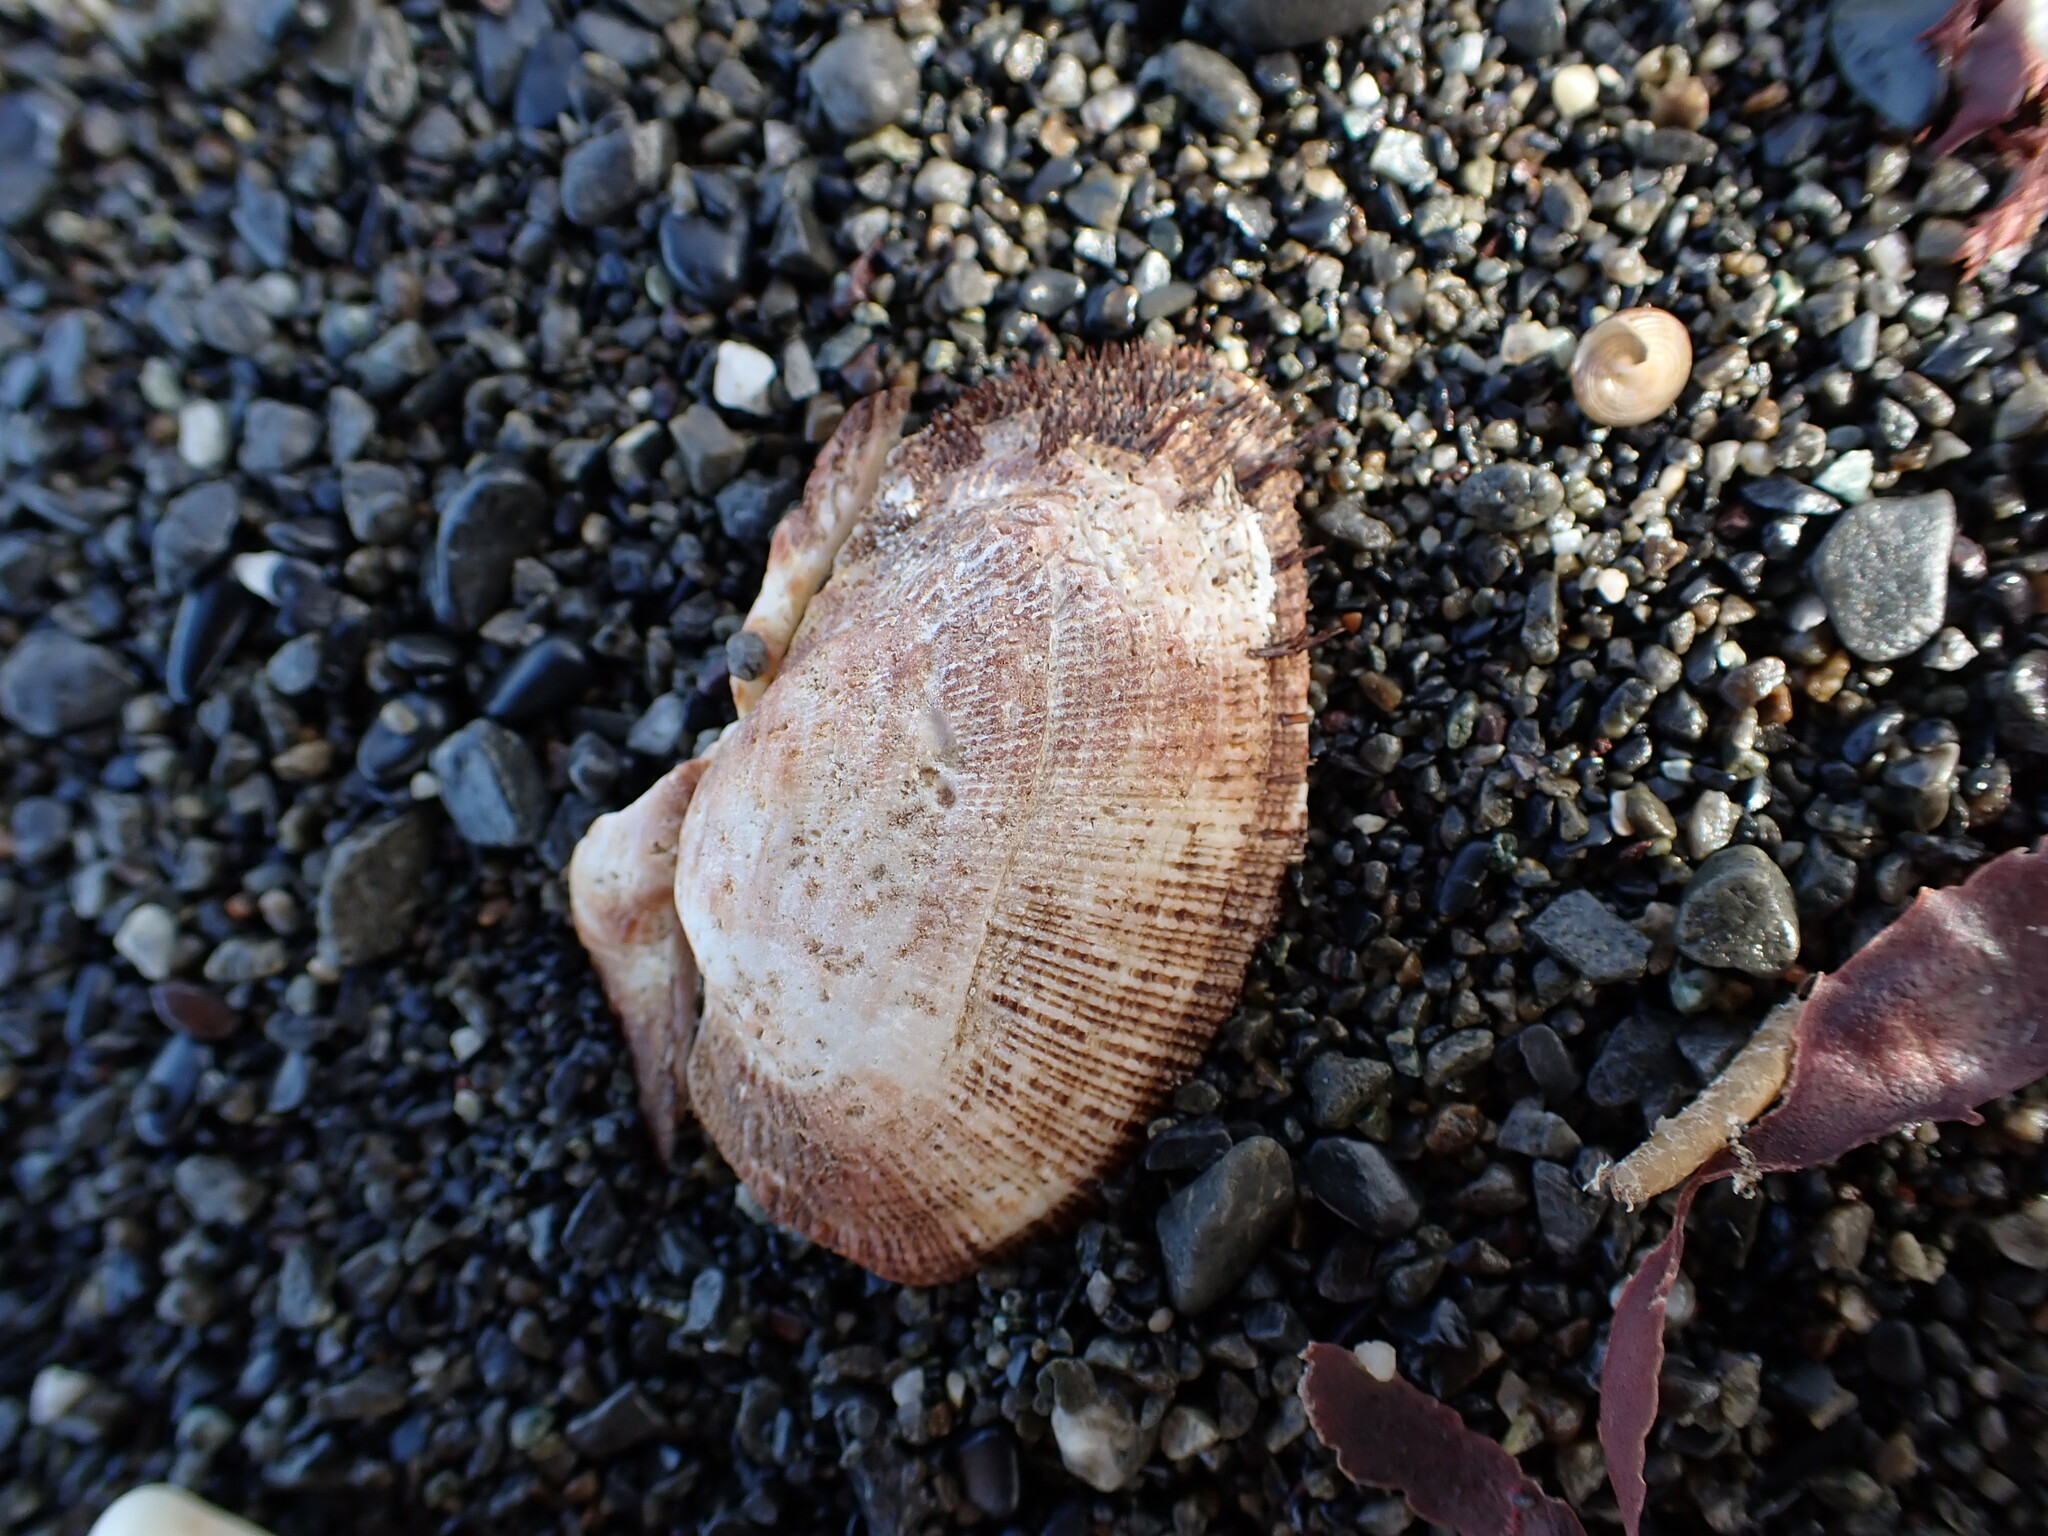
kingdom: Animalia
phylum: Mollusca
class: Bivalvia
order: Arcida
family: Arcidae
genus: Barbatia
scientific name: Barbatia novaezealandiae
